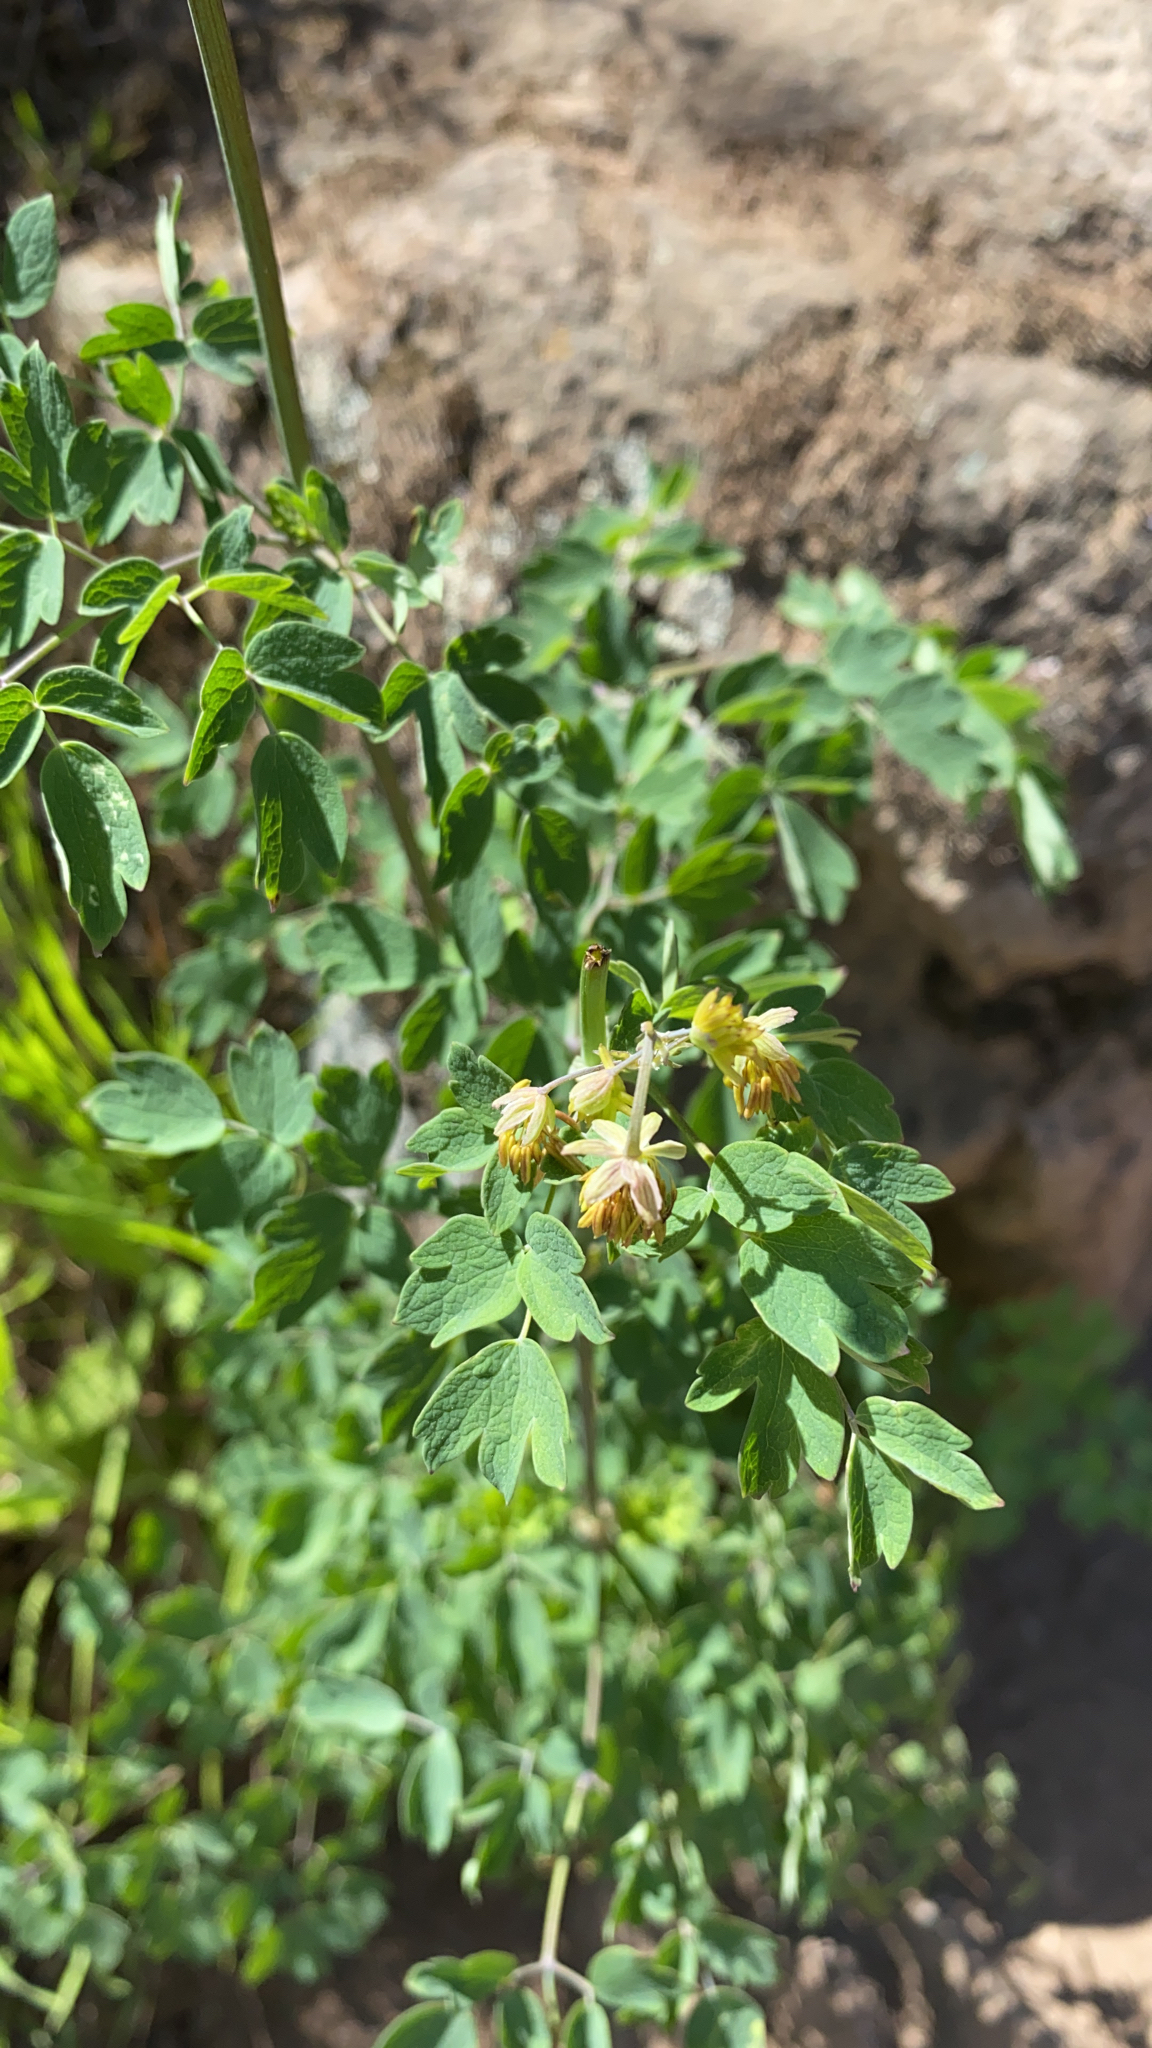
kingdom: Plantae
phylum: Tracheophyta
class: Magnoliopsida
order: Ranunculales
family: Ranunculaceae
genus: Thalictrum
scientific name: Thalictrum fendleri
